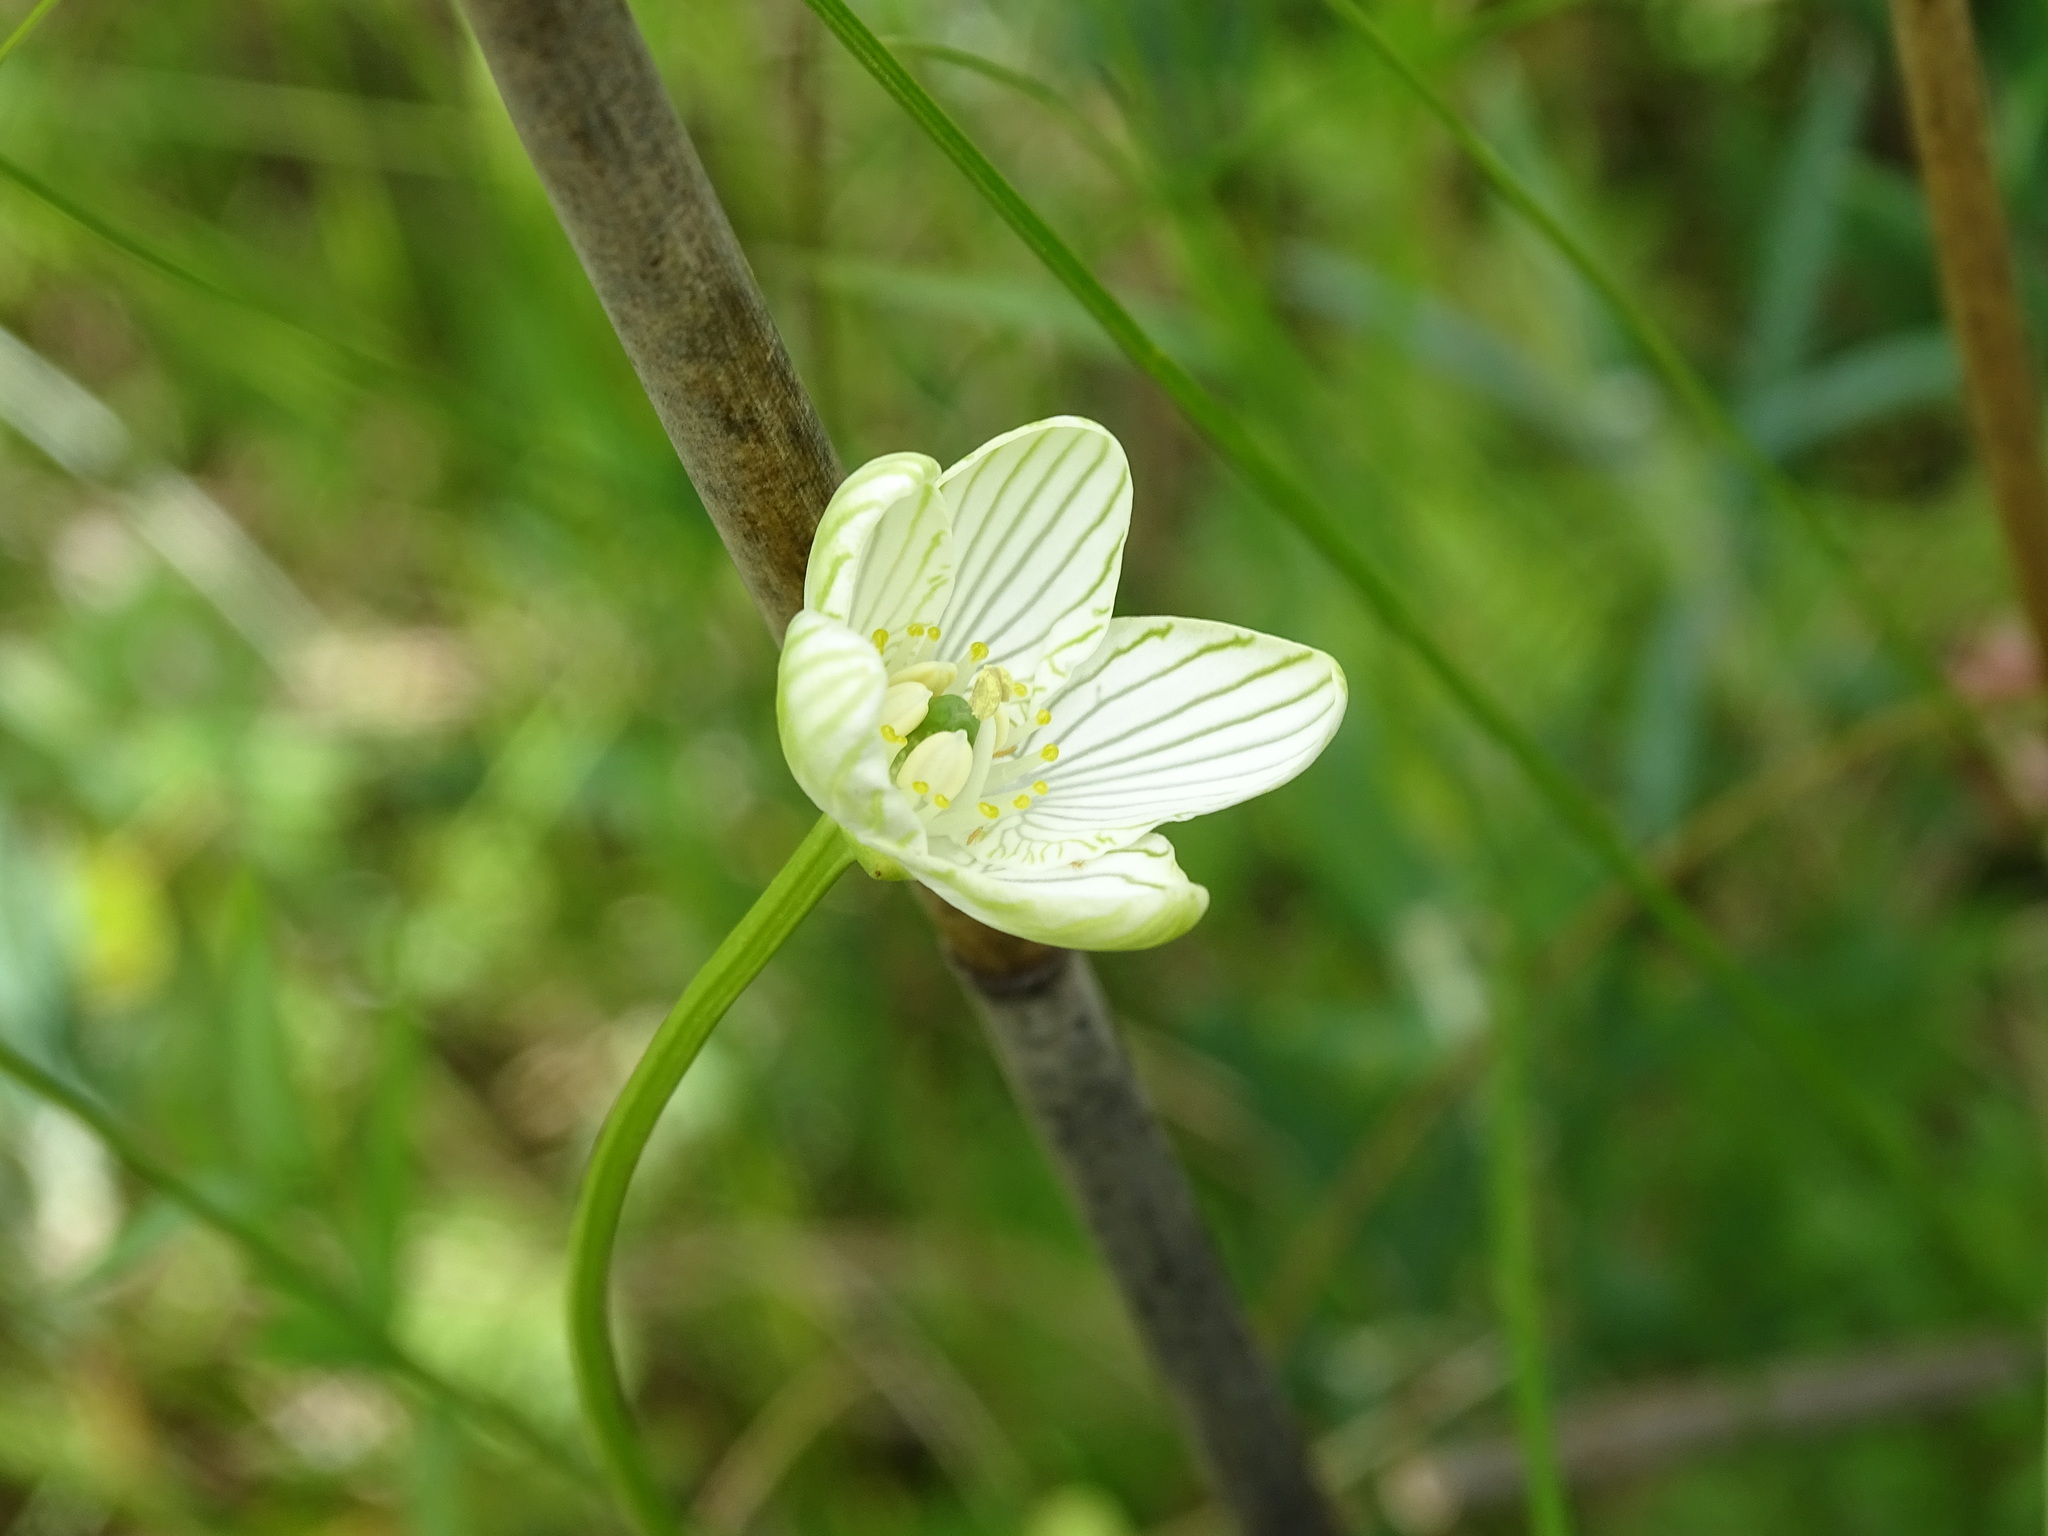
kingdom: Plantae
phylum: Tracheophyta
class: Magnoliopsida
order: Celastrales
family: Parnassiaceae
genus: Parnassia
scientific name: Parnassia glauca
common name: American grass-of-parnassus
